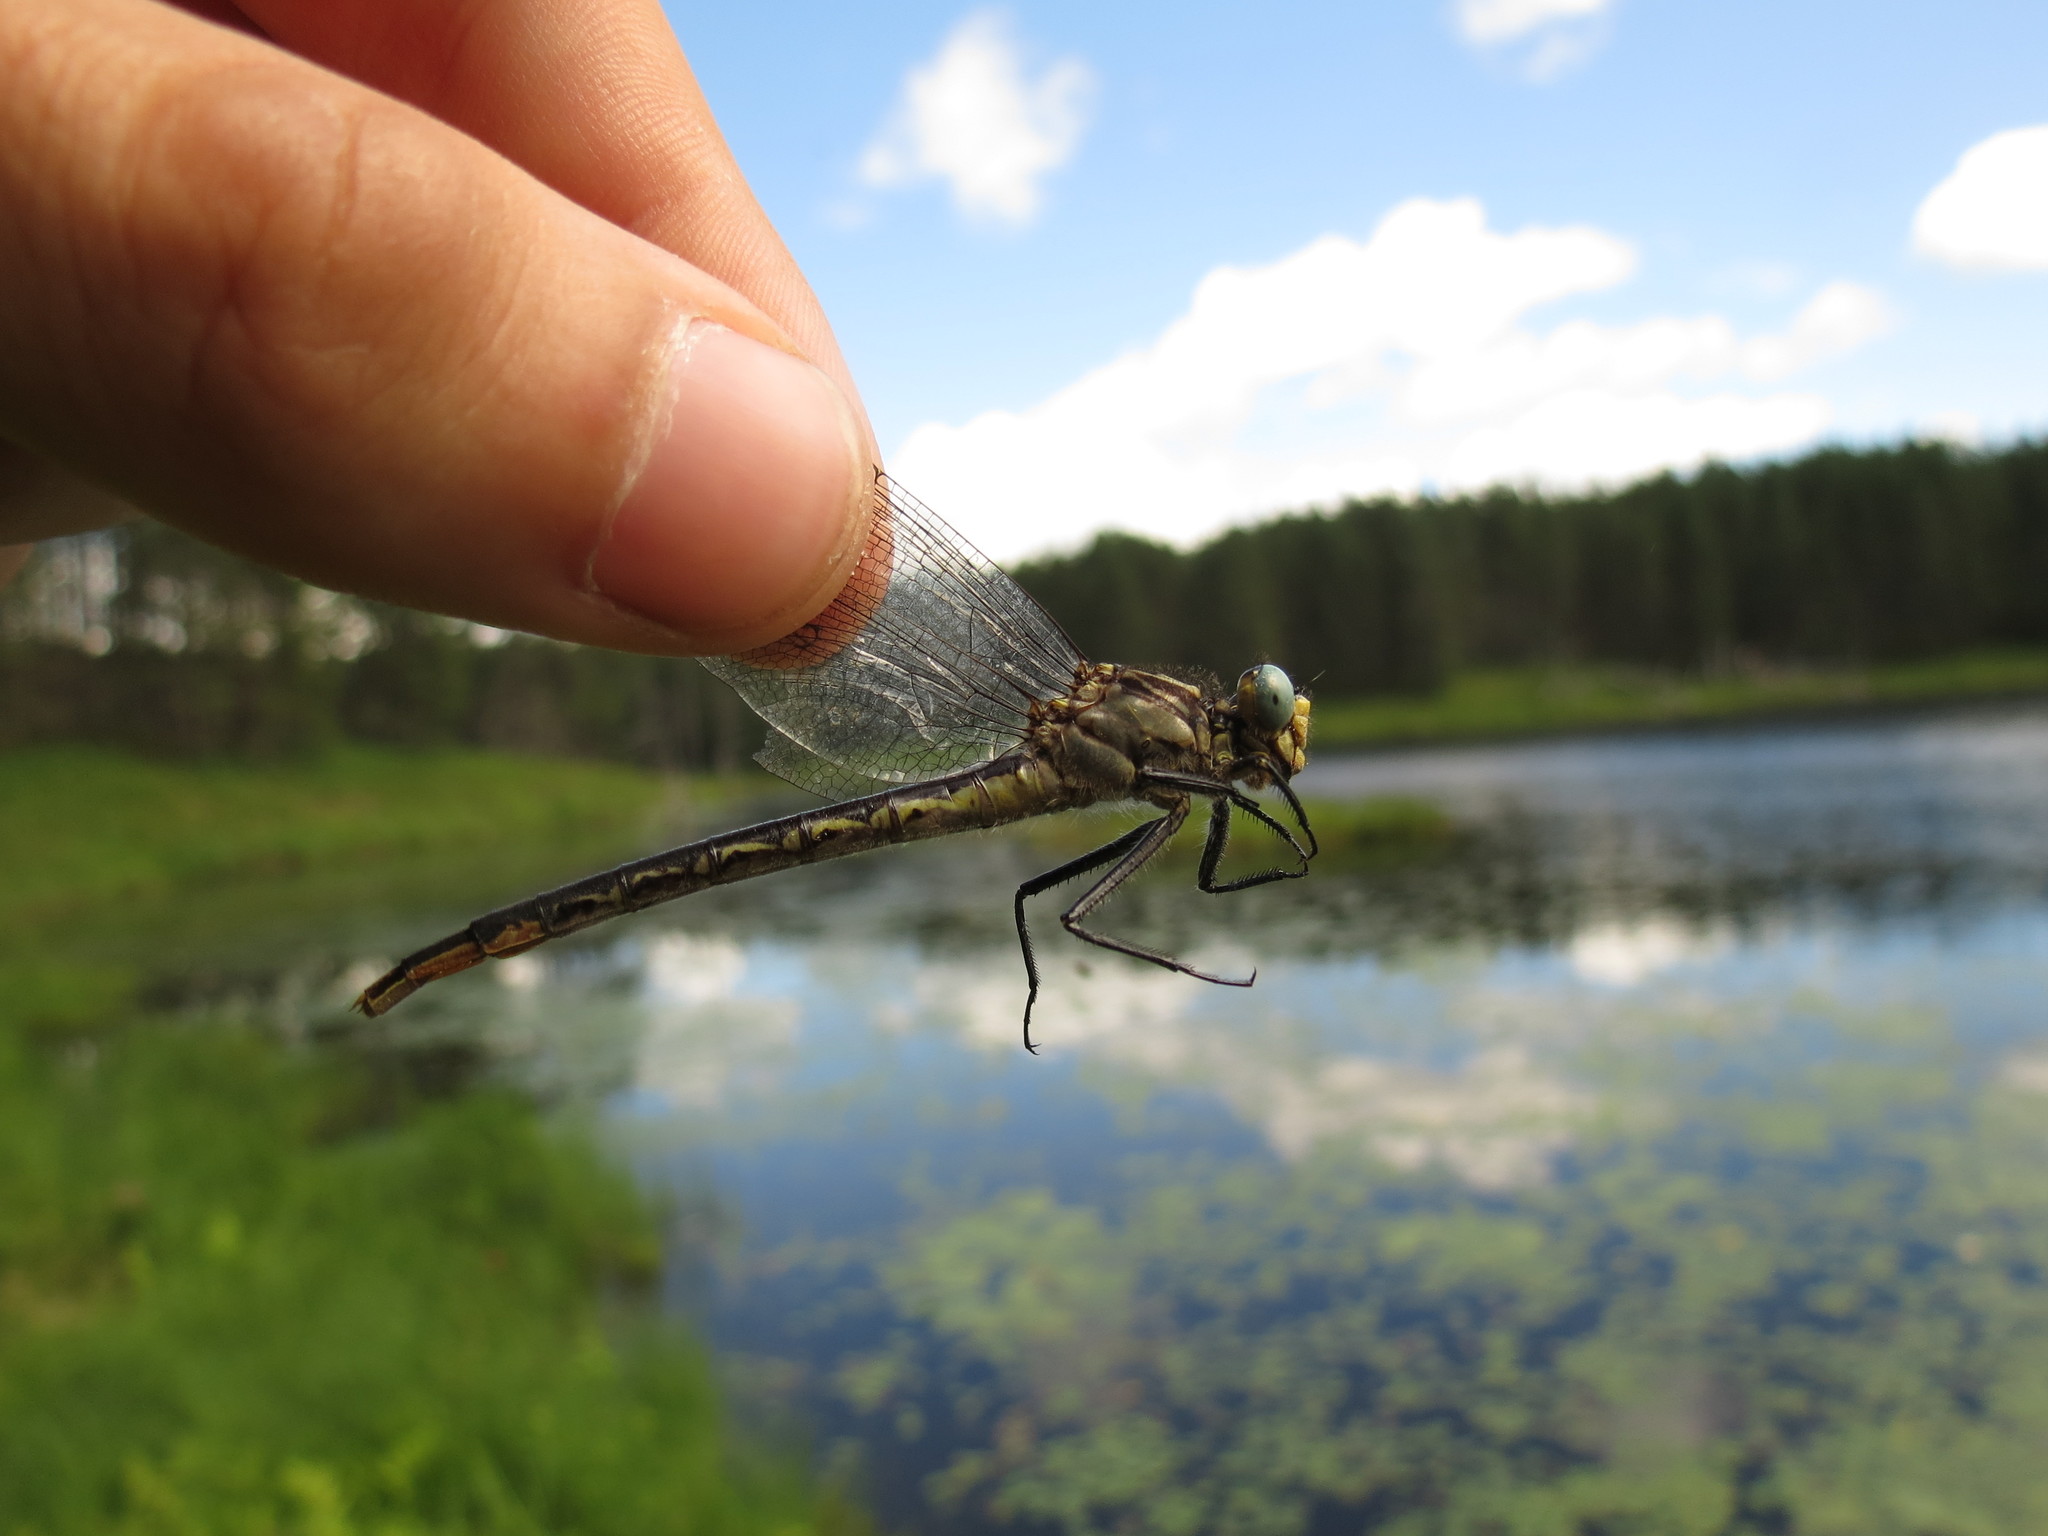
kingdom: Animalia
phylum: Arthropoda
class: Insecta
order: Odonata
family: Gomphidae
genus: Arigomphus
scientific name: Arigomphus furcifer
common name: Lilypad clubtail
